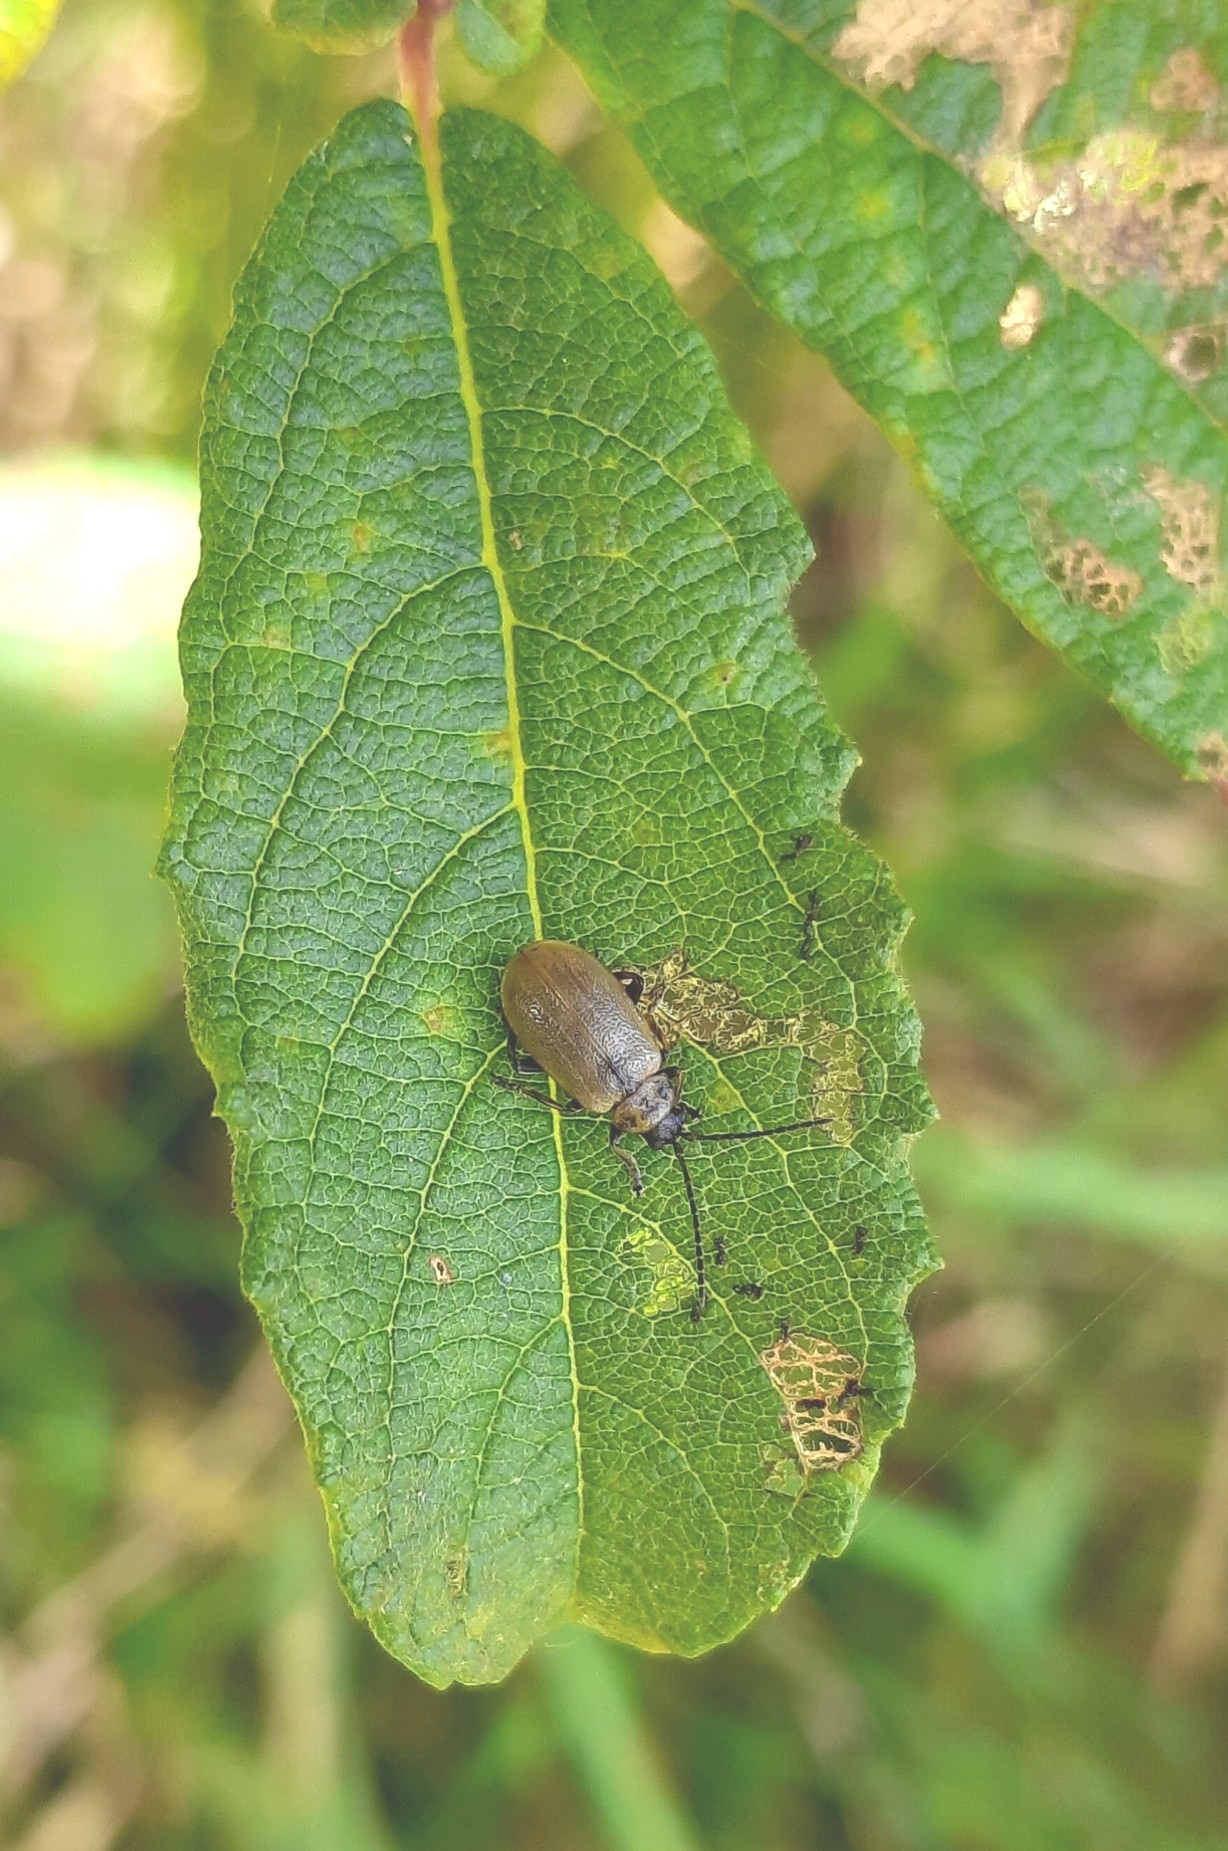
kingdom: Animalia
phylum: Arthropoda
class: Insecta
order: Coleoptera
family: Chrysomelidae
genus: Lochmaea
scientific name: Lochmaea caprea
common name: Willow leaf beetle
